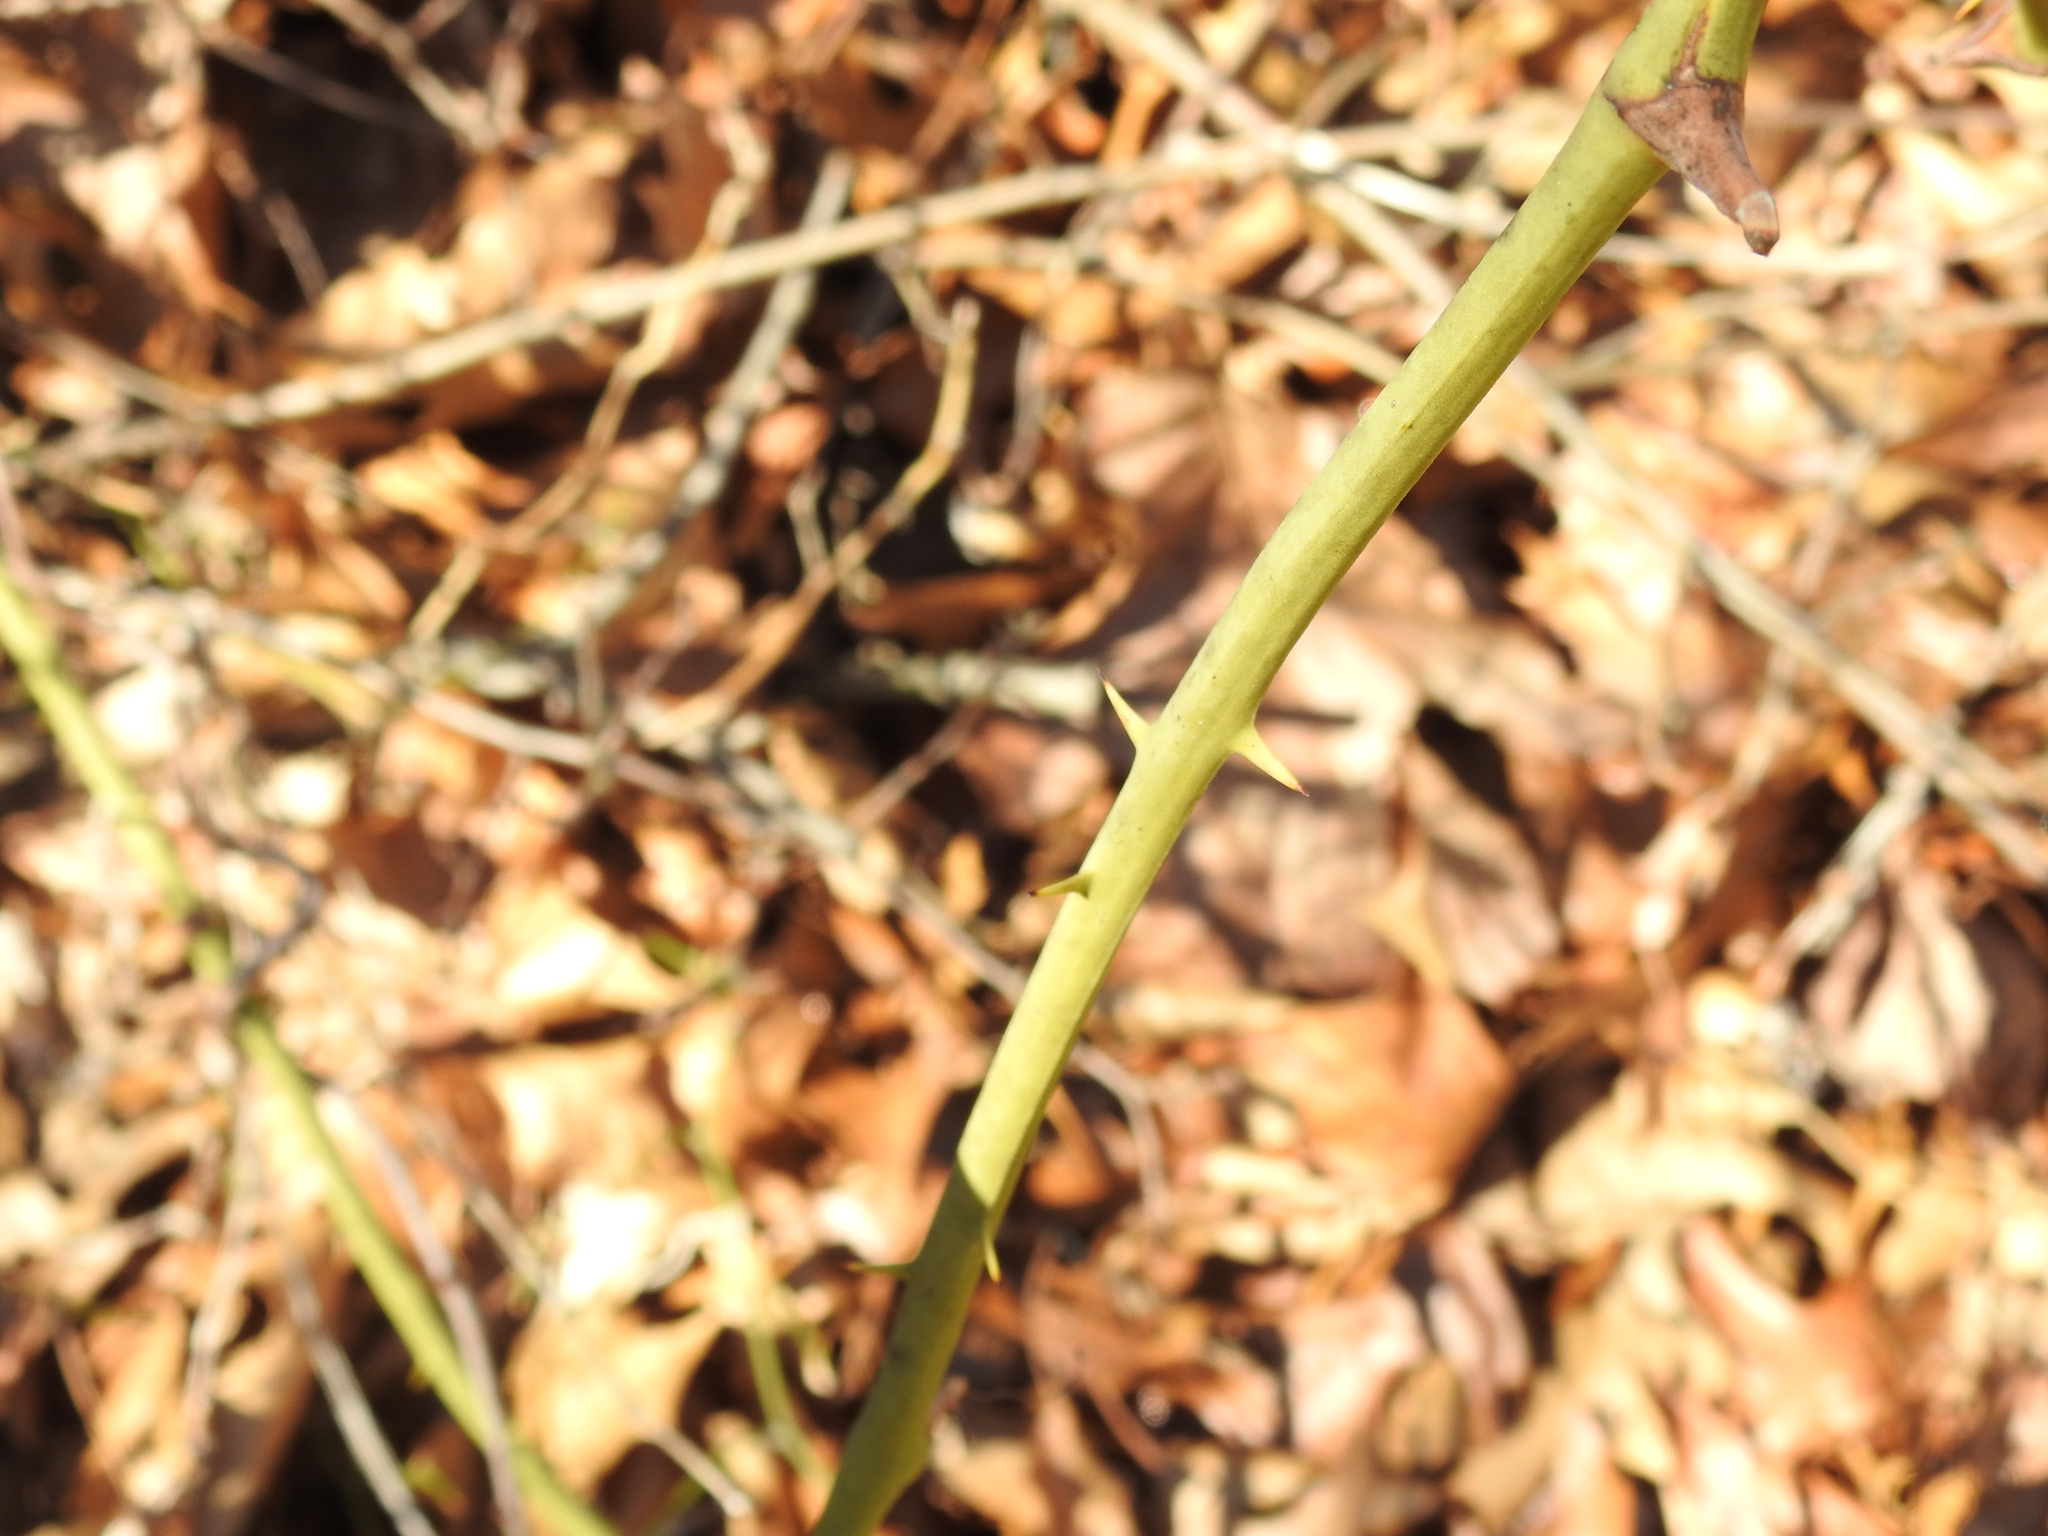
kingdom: Plantae
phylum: Tracheophyta
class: Liliopsida
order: Liliales
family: Smilacaceae
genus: Smilax
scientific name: Smilax rotundifolia
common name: Bullbriar
